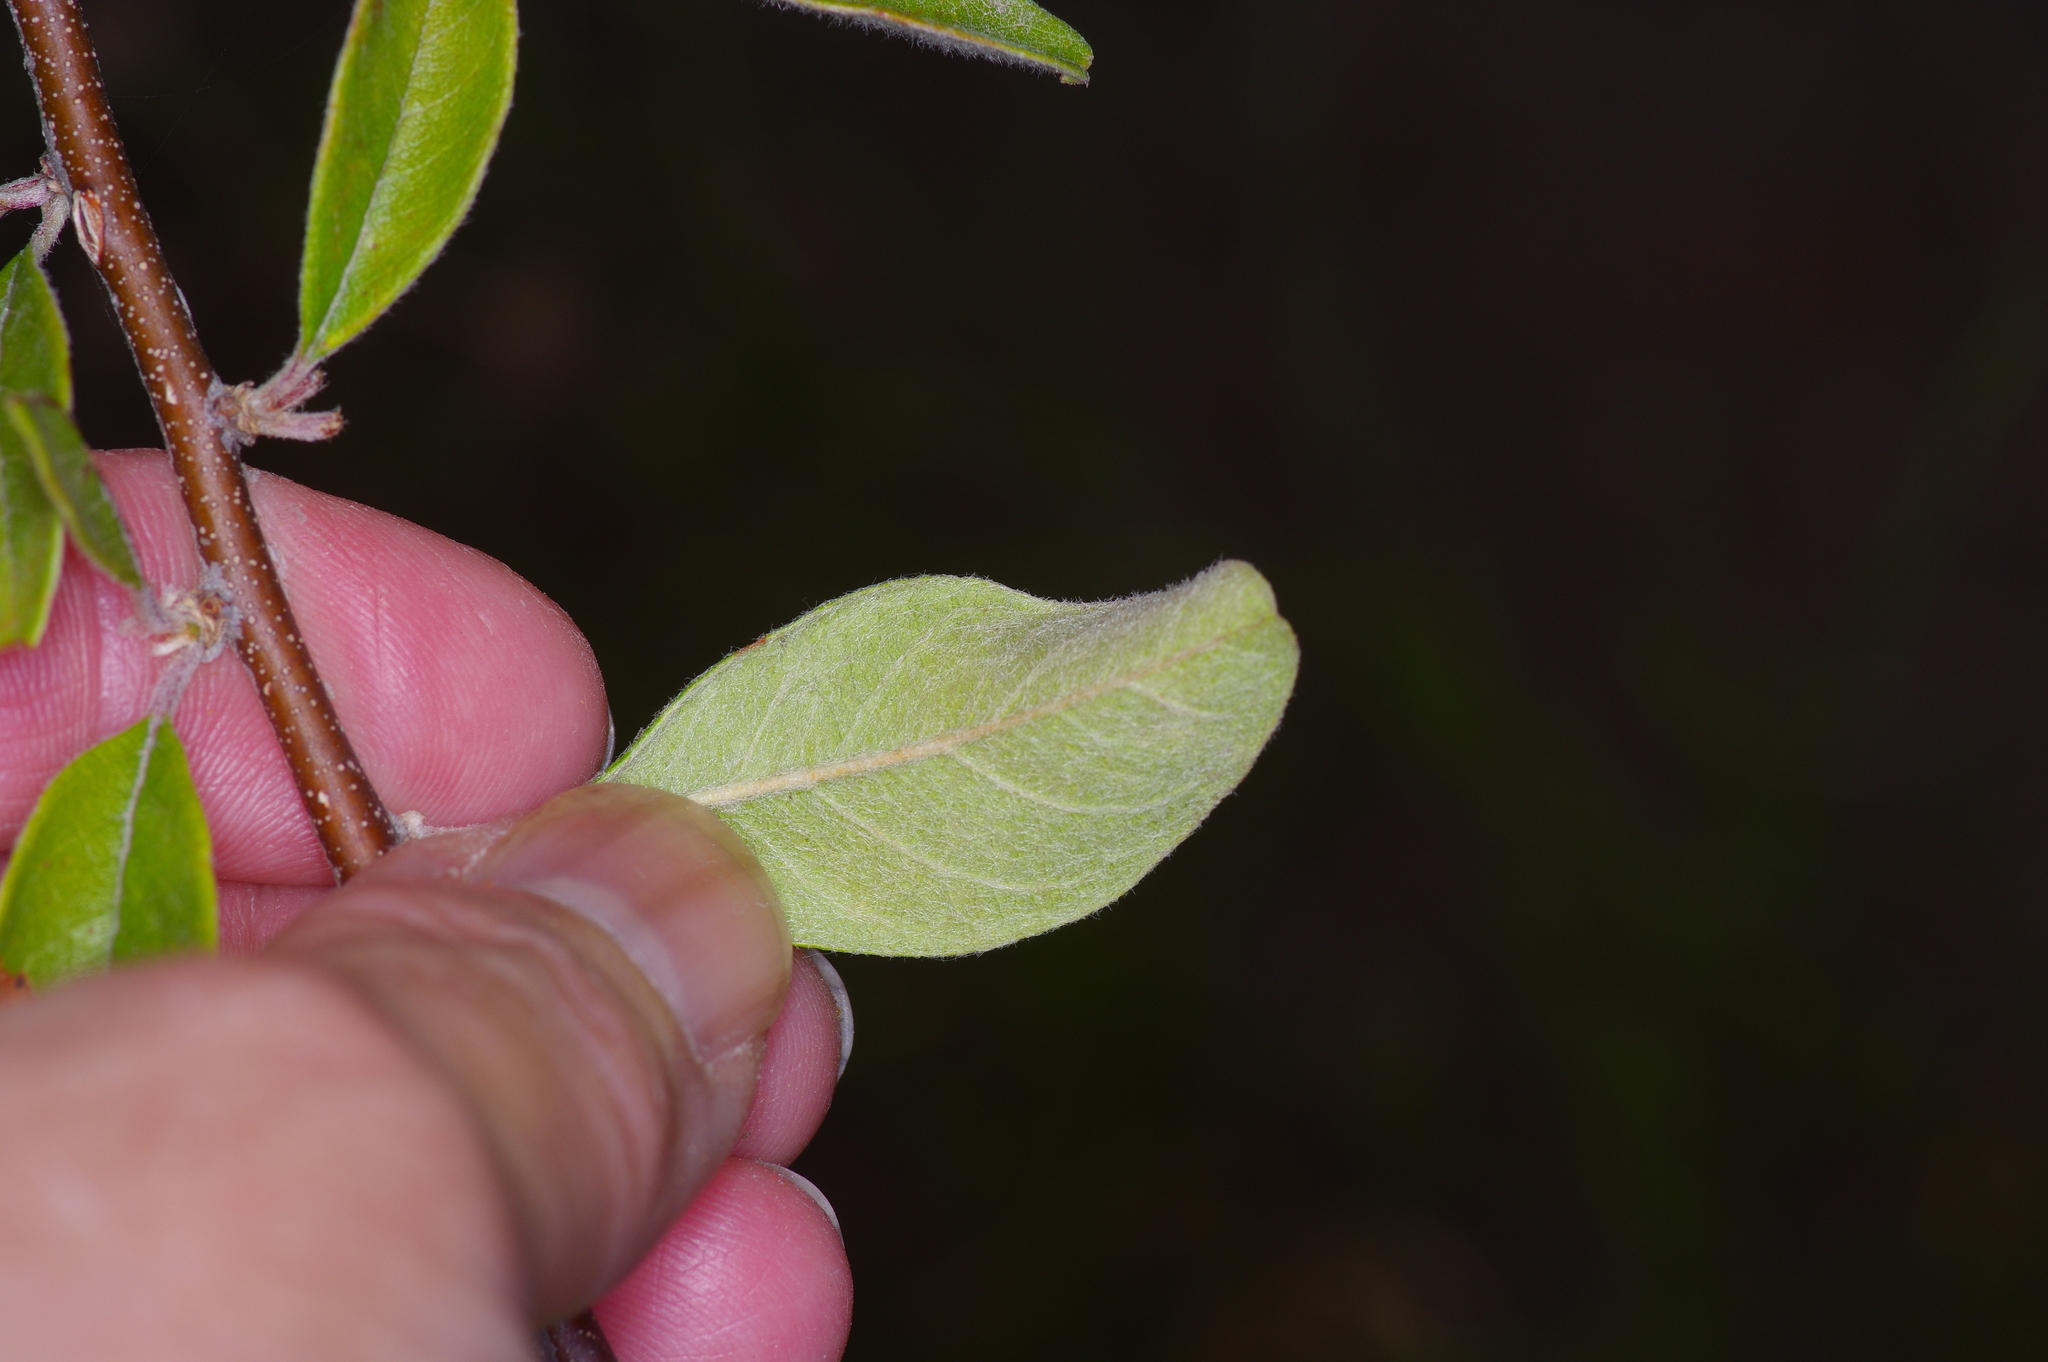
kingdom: Plantae
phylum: Tracheophyta
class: Magnoliopsida
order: Ericales
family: Sapotaceae
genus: Sideroxylon
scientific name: Sideroxylon lanuginosum
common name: Chittamwood
